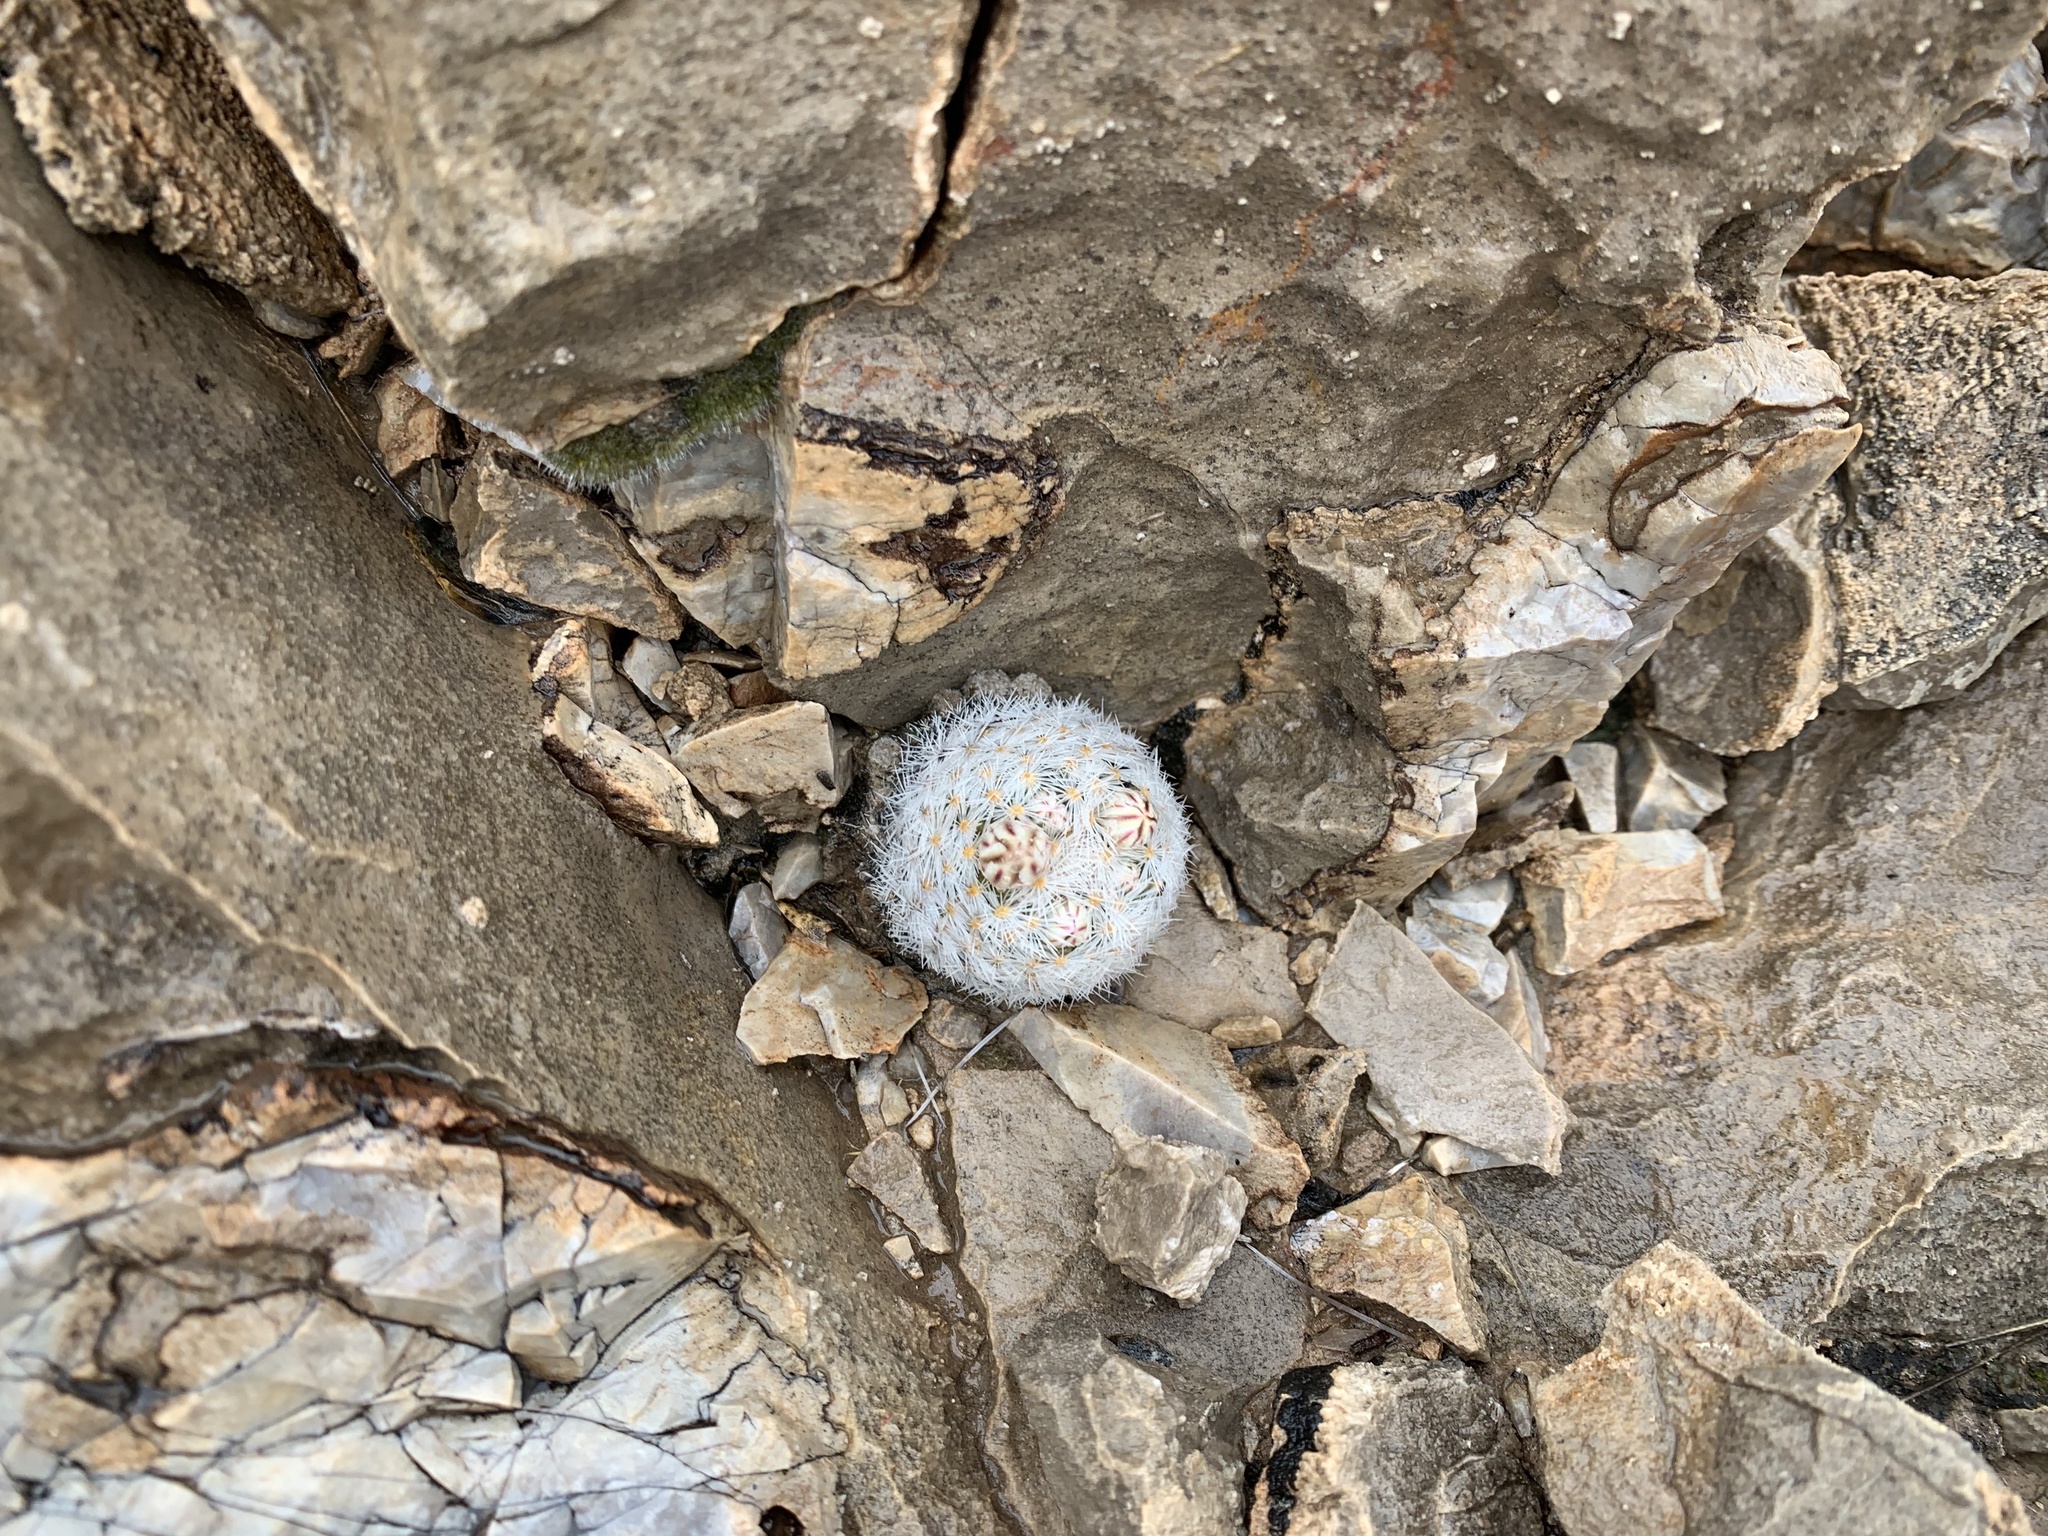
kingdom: Plantae
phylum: Tracheophyta
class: Magnoliopsida
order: Caryophyllales
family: Cactaceae
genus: Mammillaria
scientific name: Mammillaria lasiacantha
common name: Lace-spine nipple cactus
